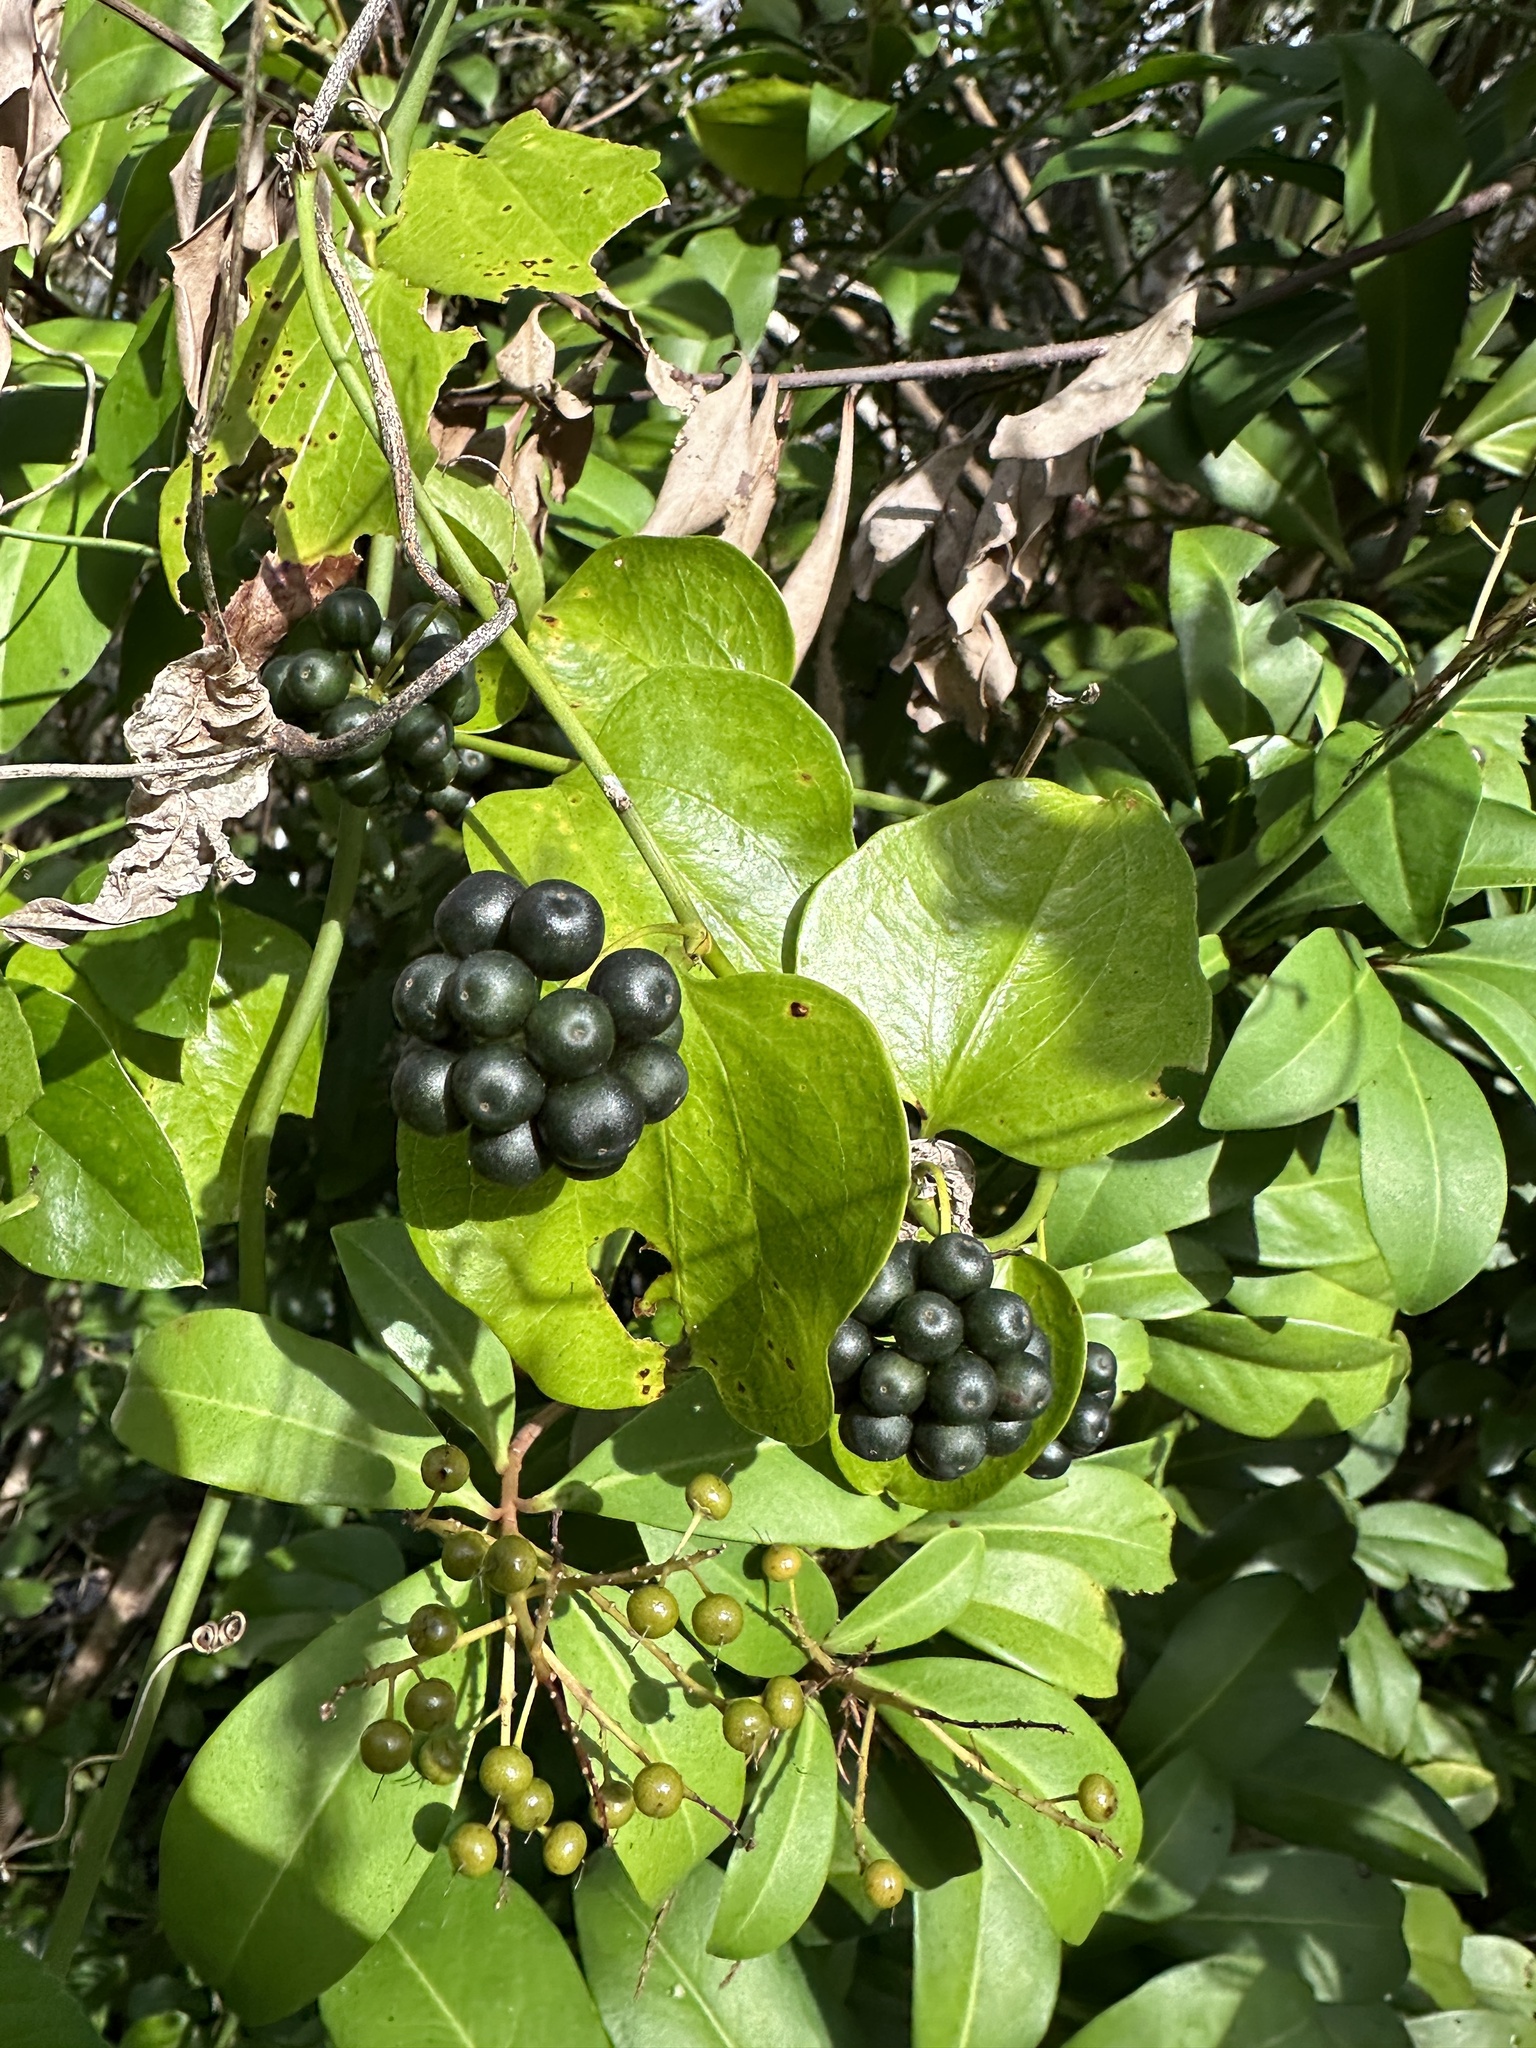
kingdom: Plantae
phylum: Tracheophyta
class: Liliopsida
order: Liliales
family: Smilacaceae
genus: Smilax
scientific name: Smilax tamnoides
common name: Hellfetter
